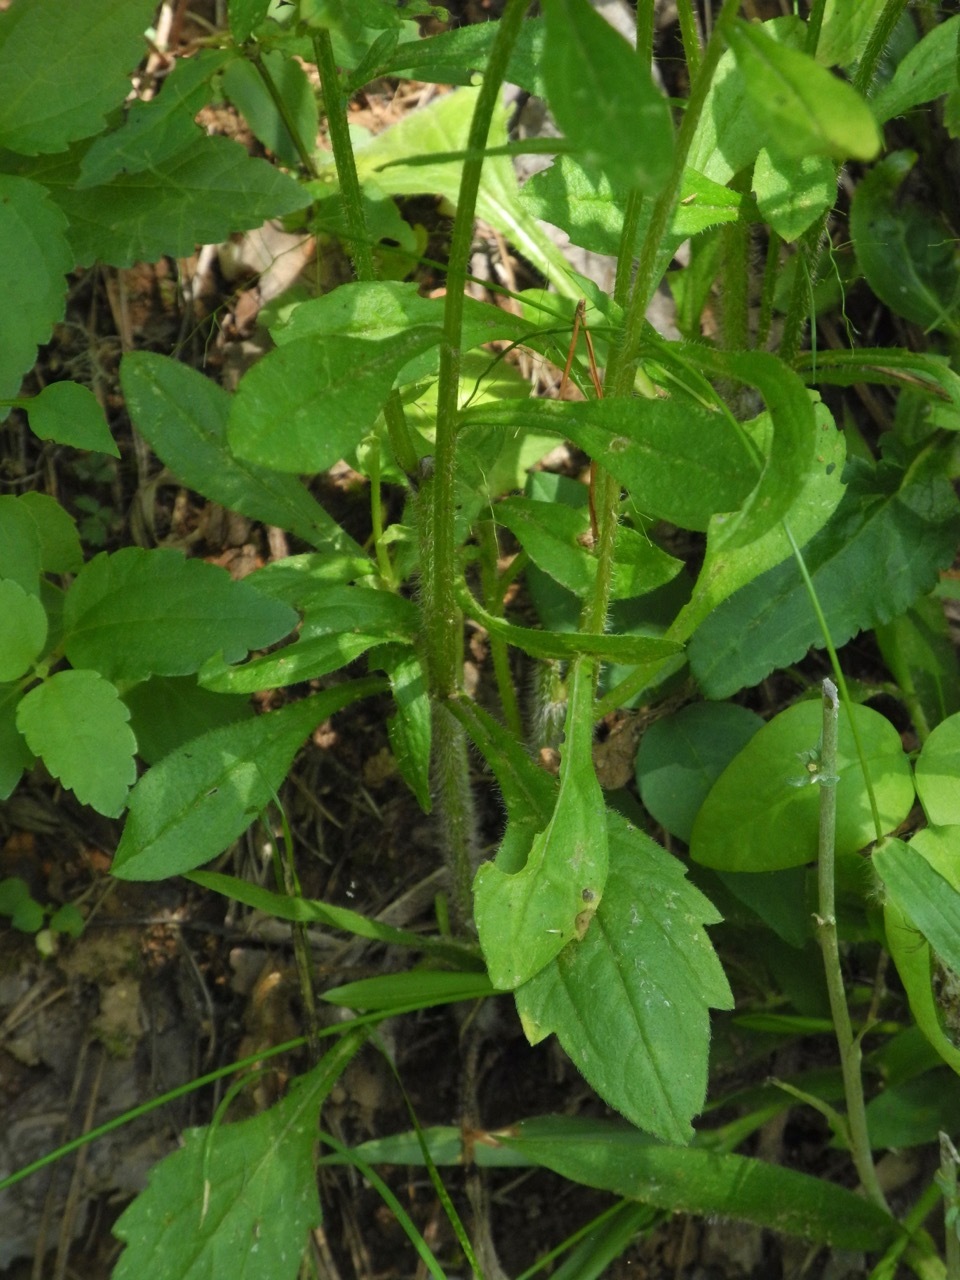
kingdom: Plantae
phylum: Tracheophyta
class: Magnoliopsida
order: Asterales
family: Asteraceae
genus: Erigeron
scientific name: Erigeron annuus
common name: Tall fleabane
